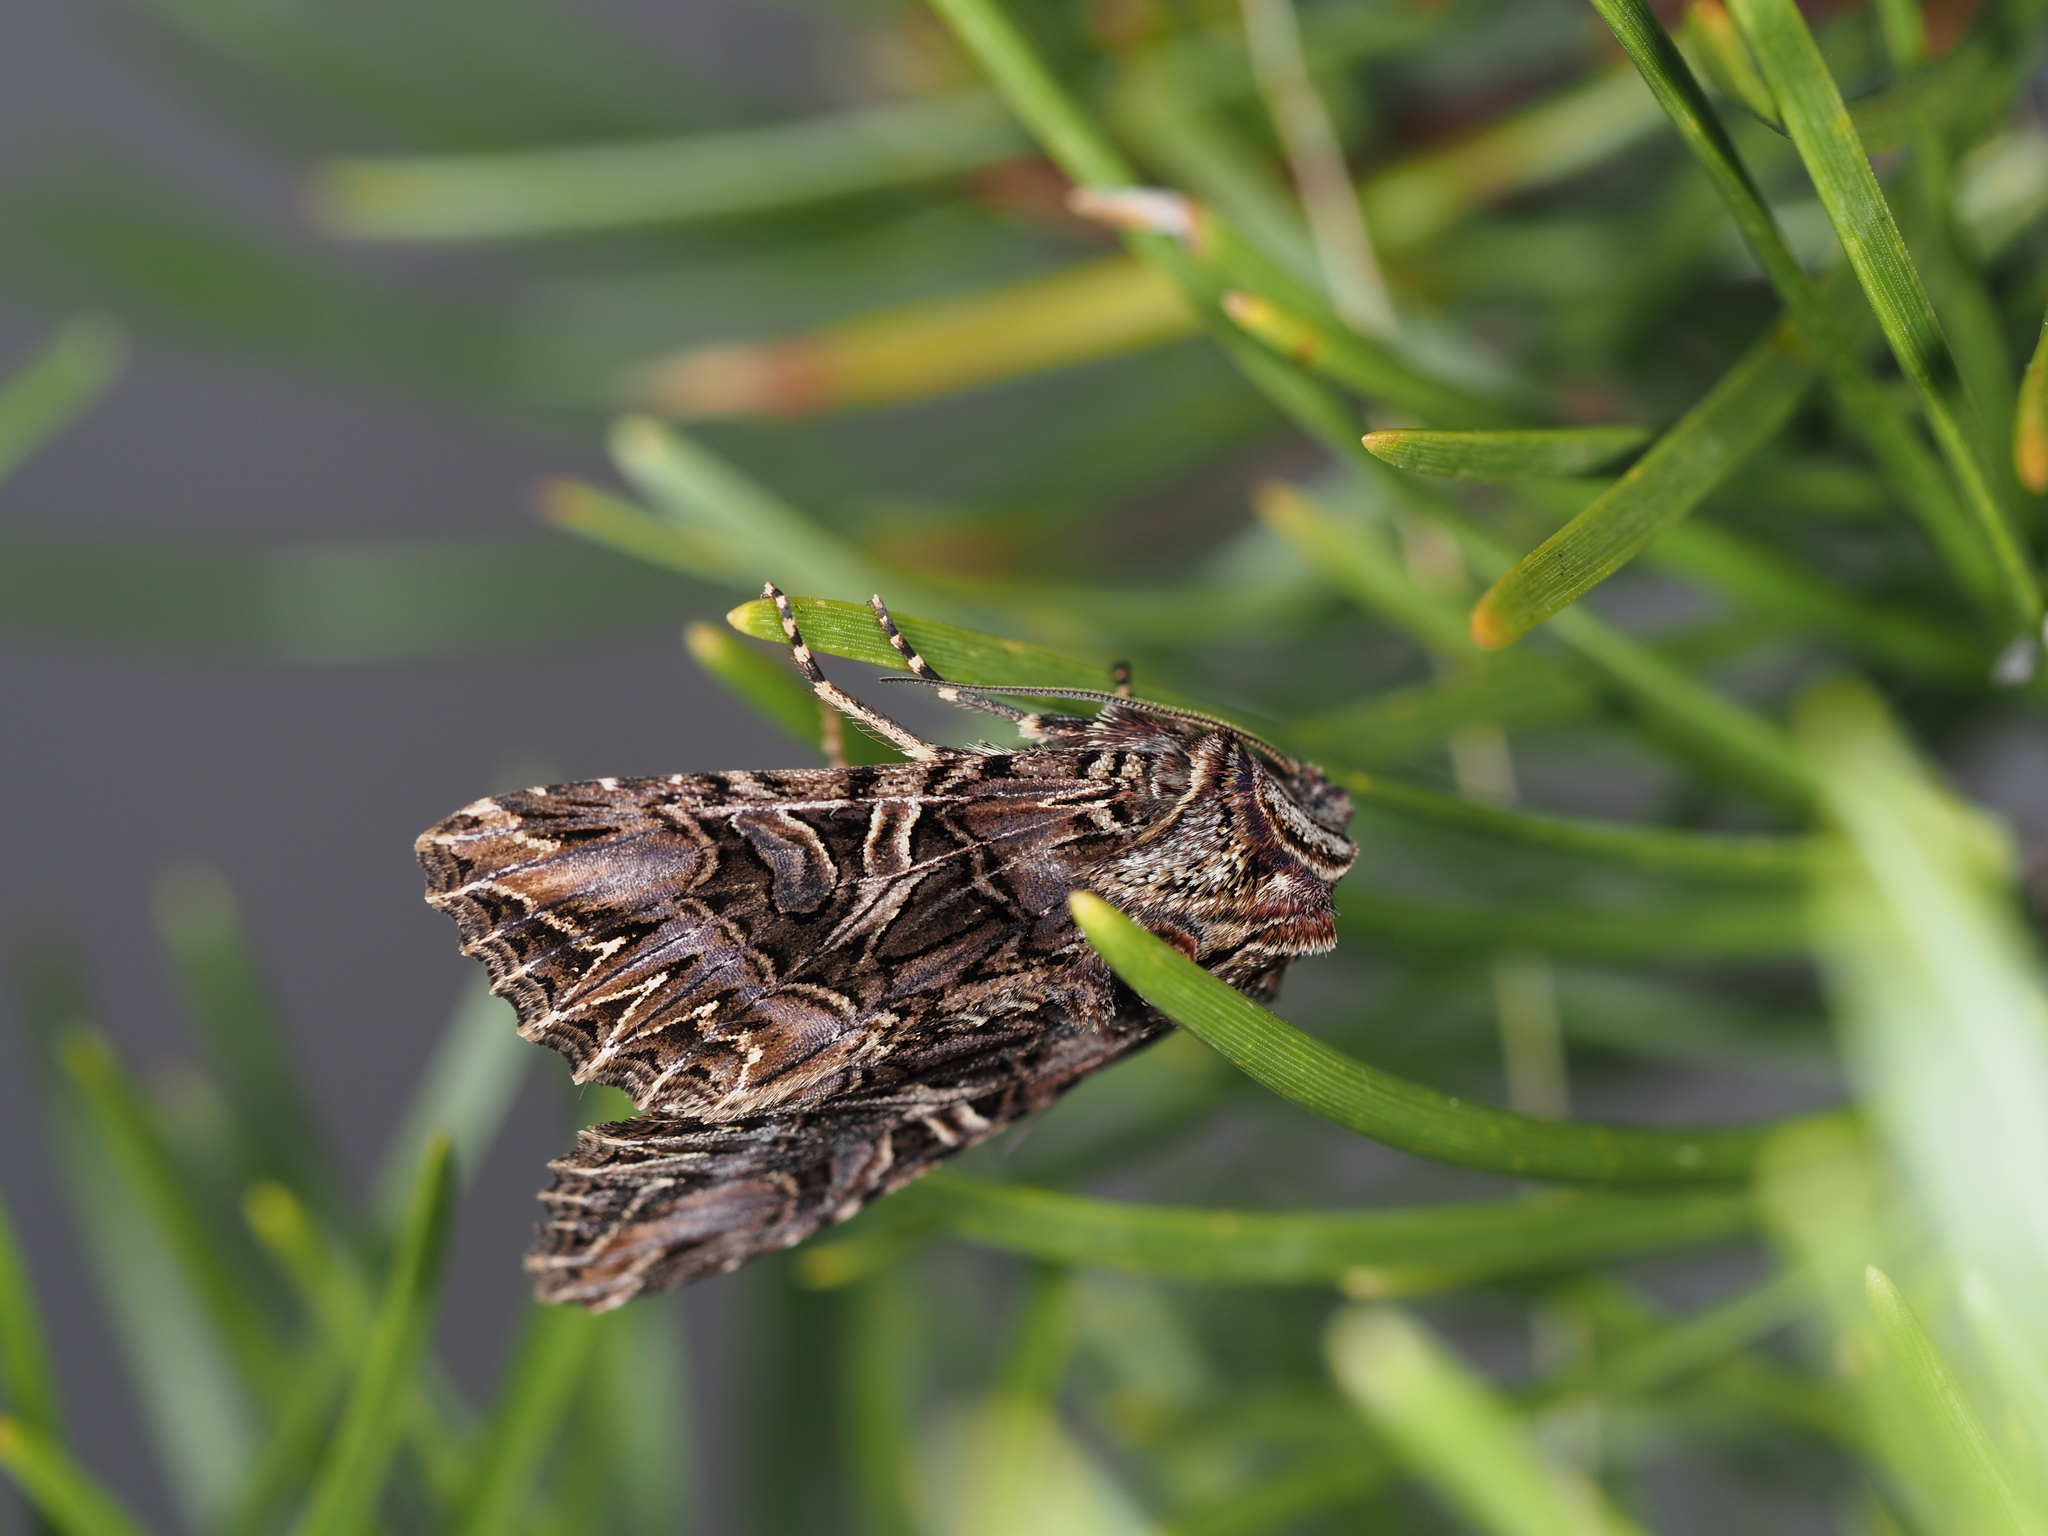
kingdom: Animalia
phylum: Arthropoda
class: Insecta
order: Lepidoptera
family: Noctuidae
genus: Anarta
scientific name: Anarta farnhami
